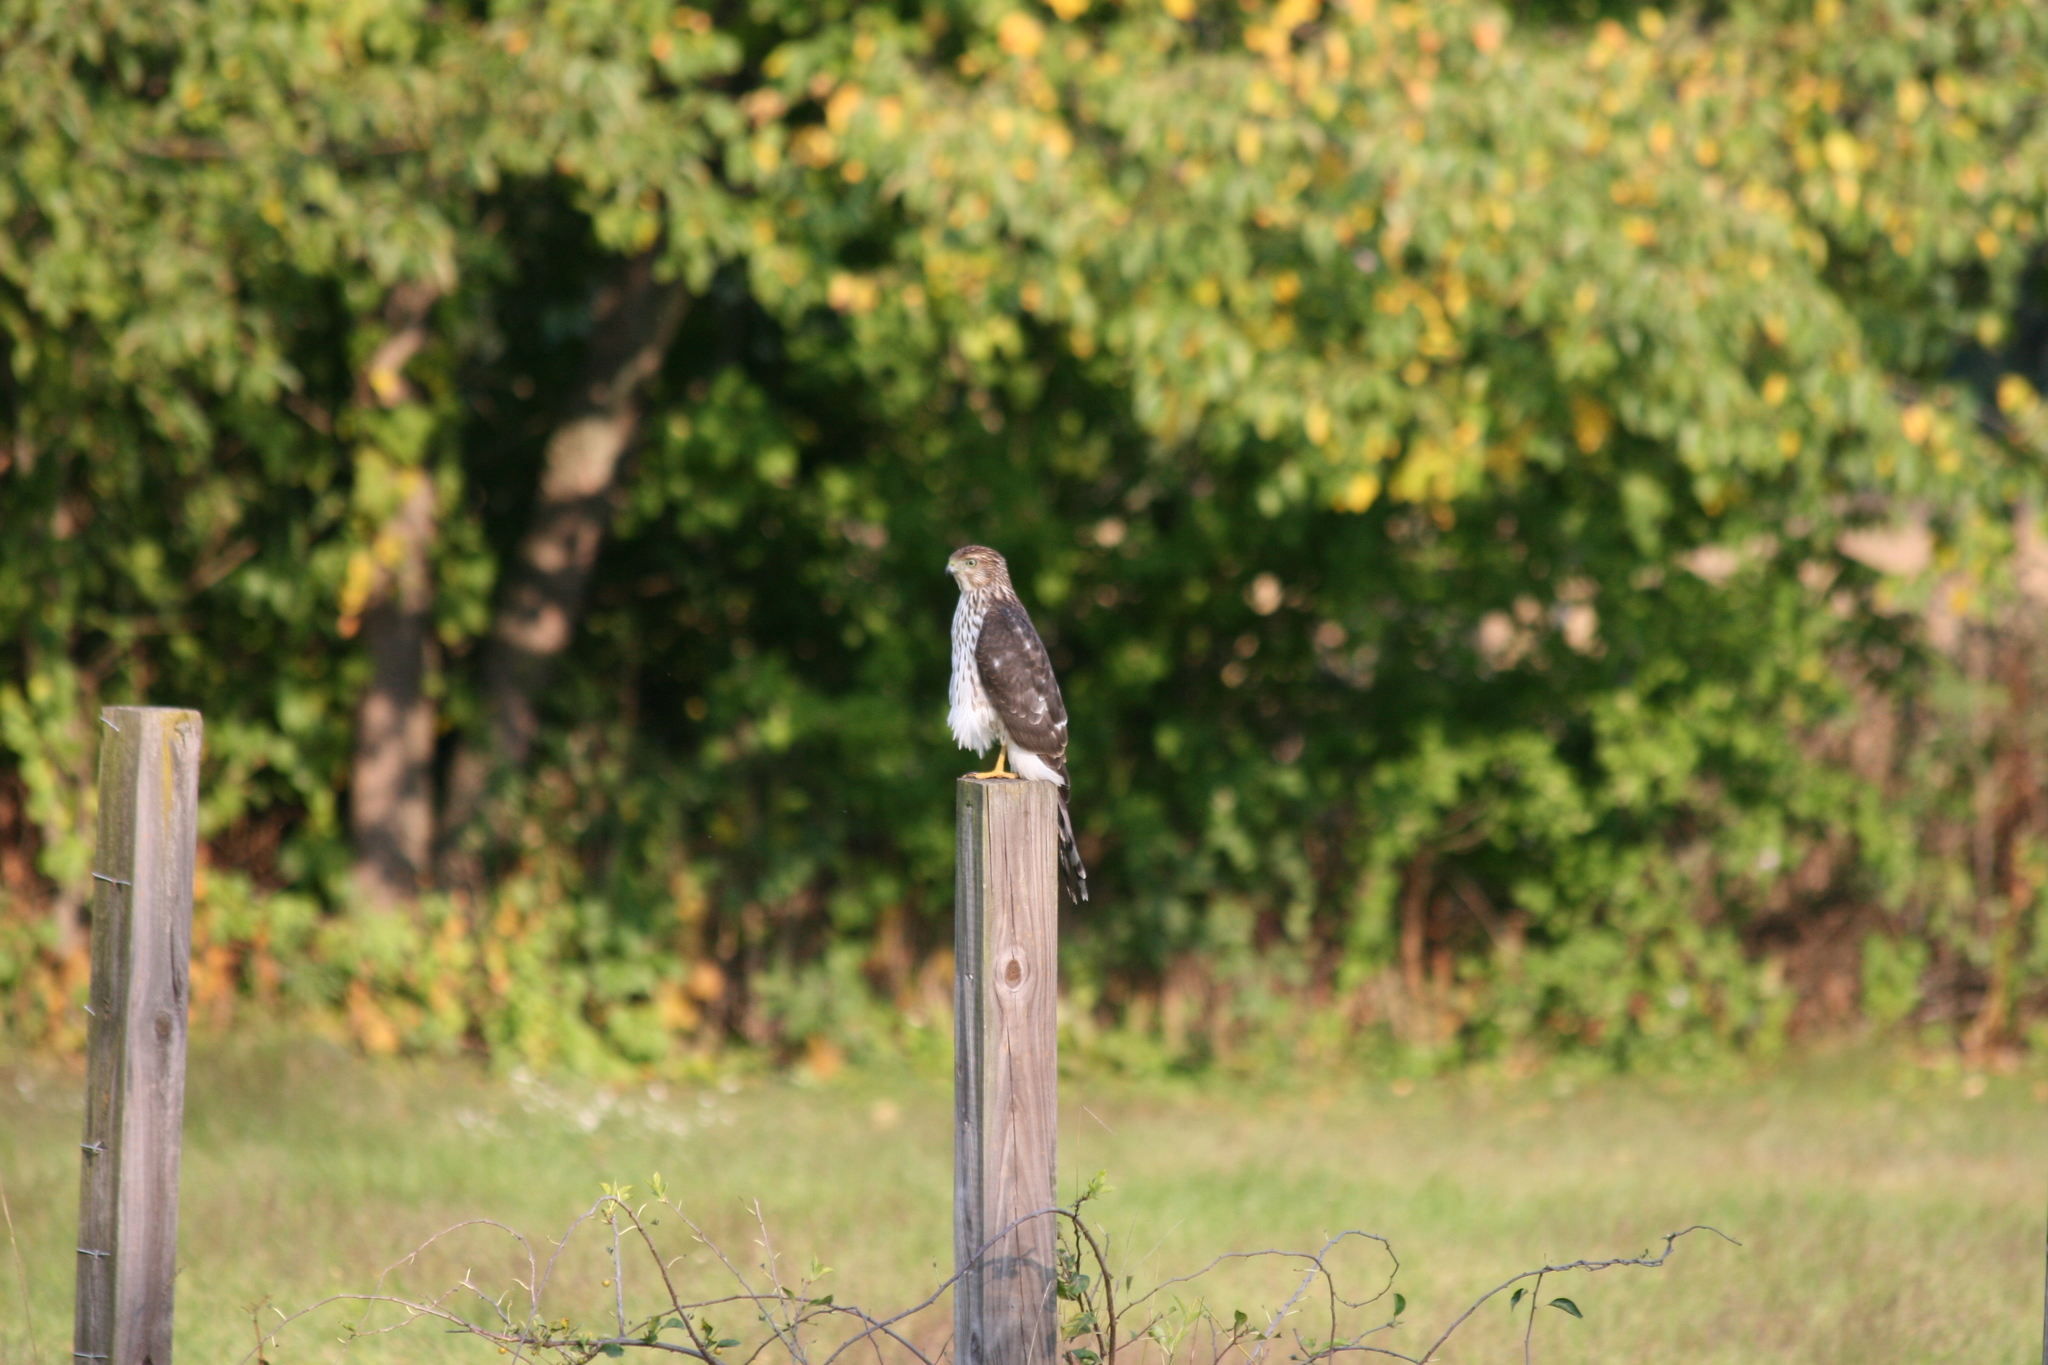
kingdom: Animalia
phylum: Chordata
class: Aves
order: Accipitriformes
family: Accipitridae
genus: Accipiter
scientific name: Accipiter cooperii
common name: Cooper's hawk
